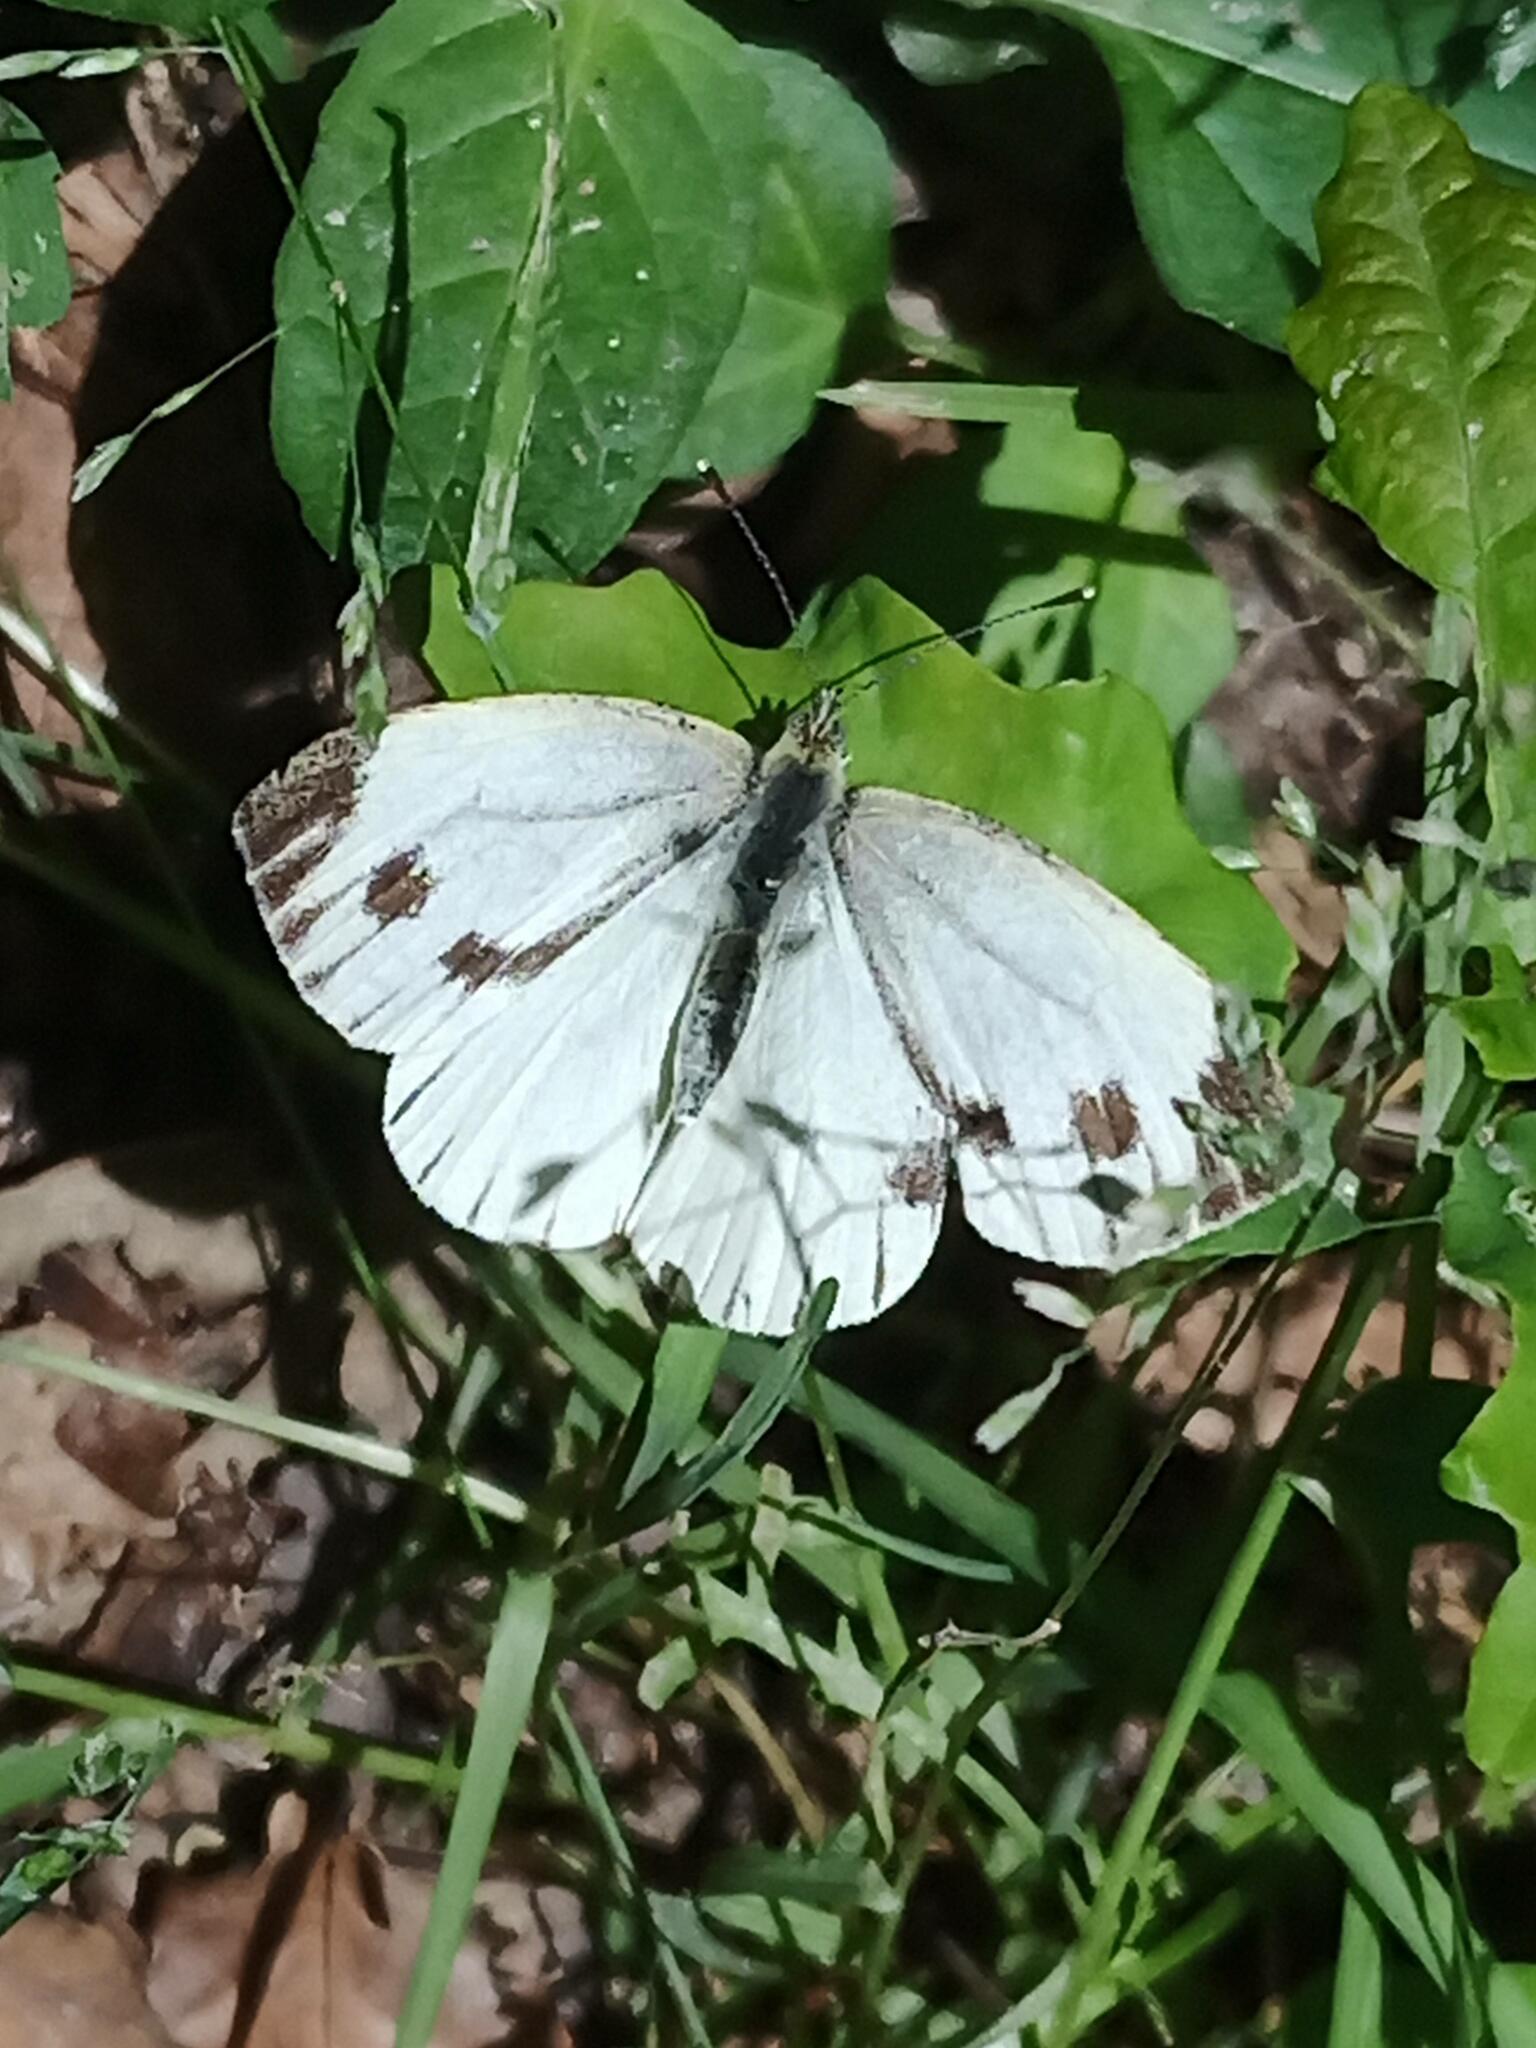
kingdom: Animalia
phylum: Arthropoda
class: Insecta
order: Lepidoptera
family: Pieridae
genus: Pieris
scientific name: Pieris napi
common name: Green-veined white
